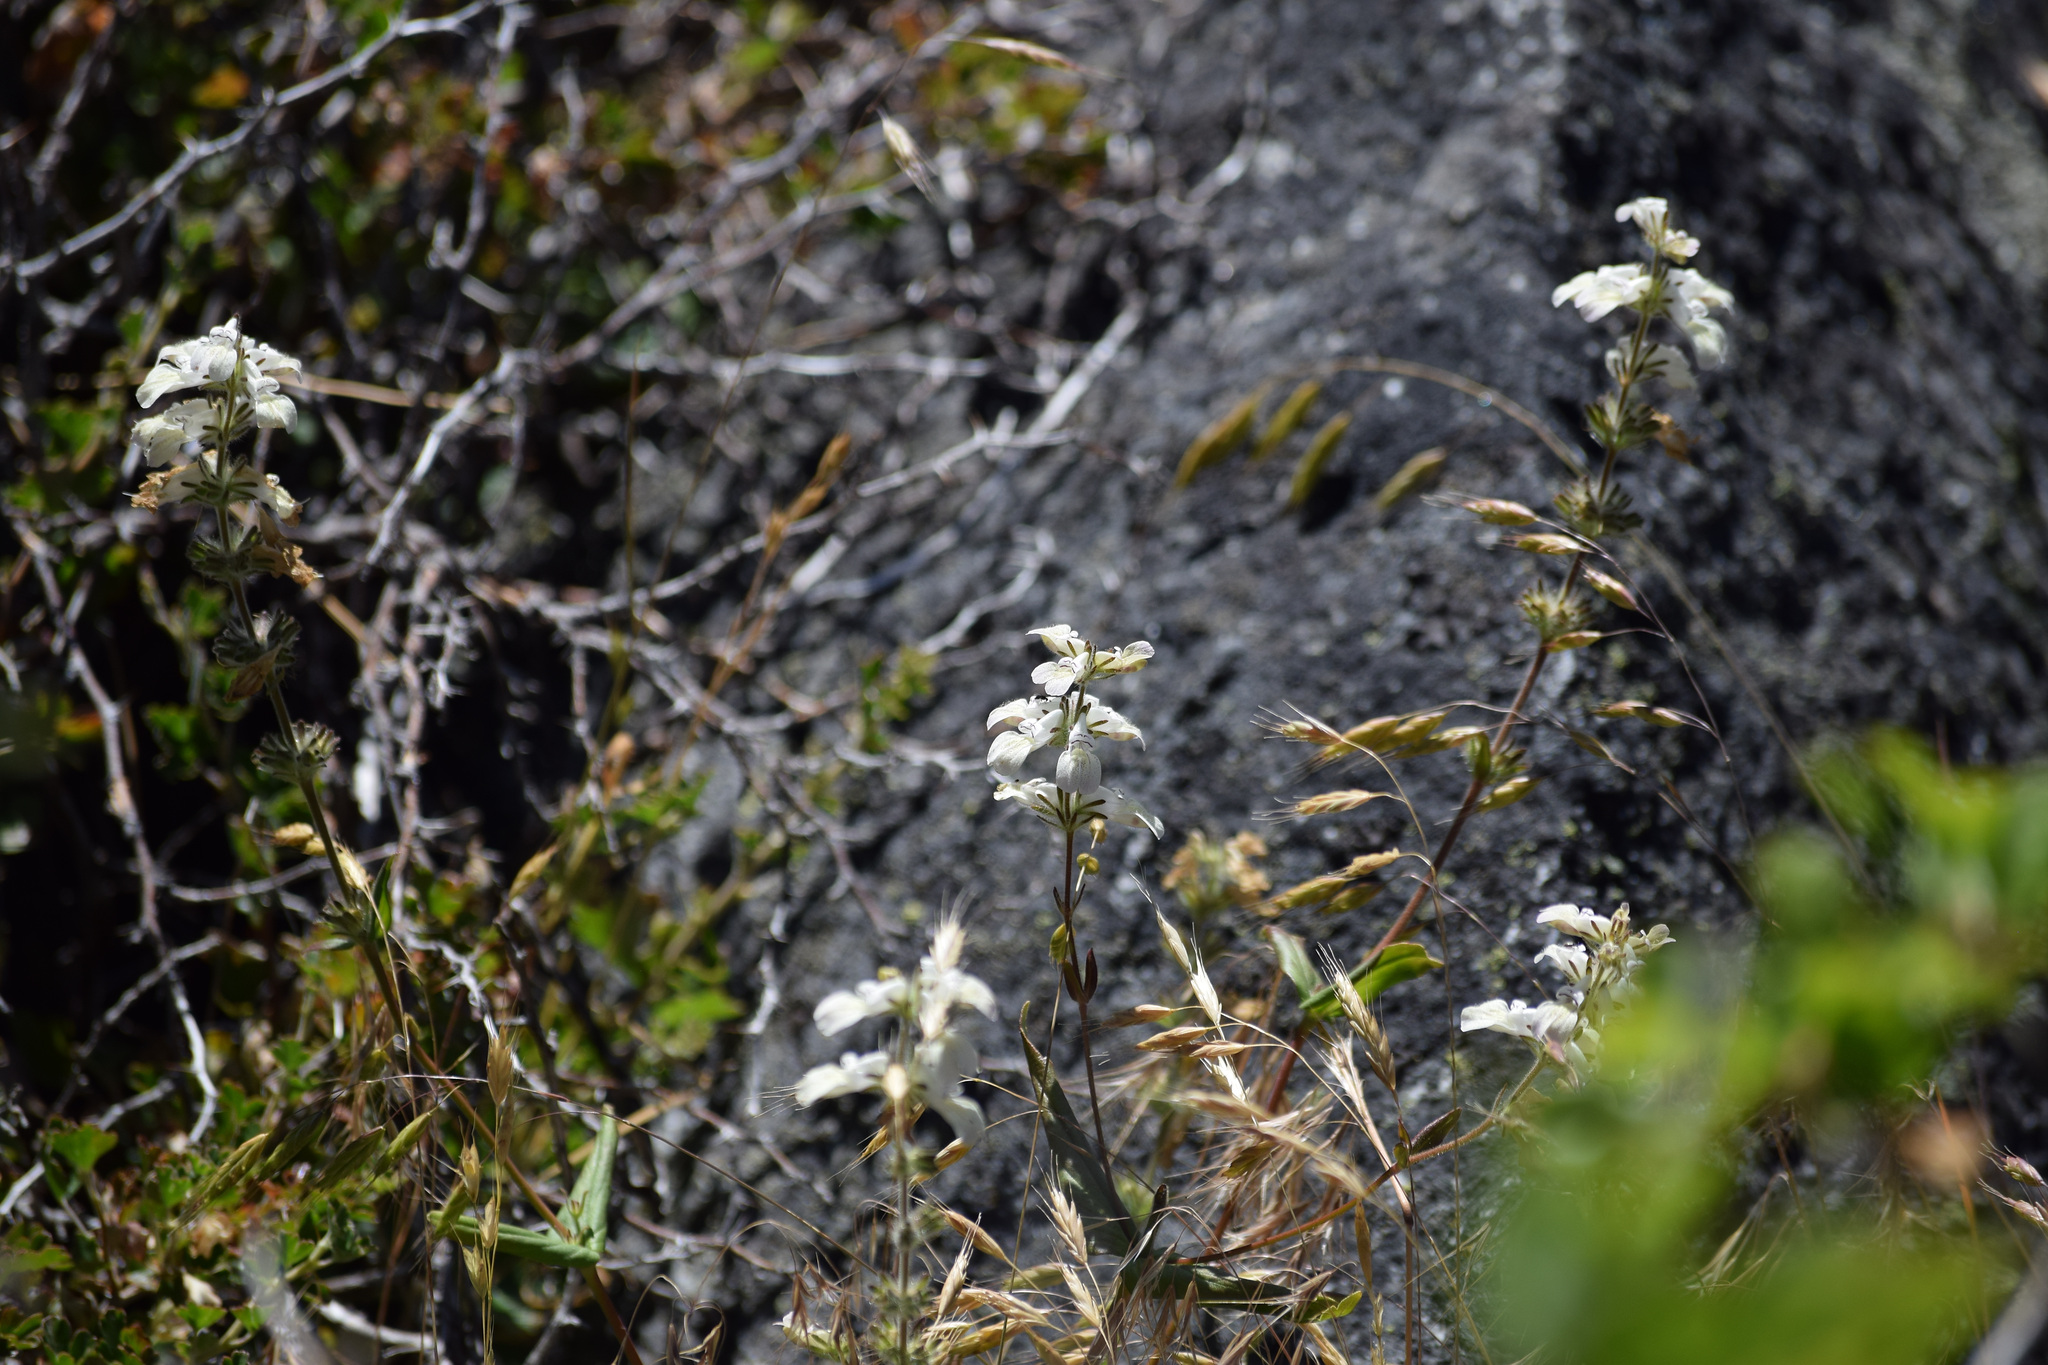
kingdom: Plantae
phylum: Tracheophyta
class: Magnoliopsida
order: Lamiales
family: Plantaginaceae
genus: Collinsia
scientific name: Collinsia tinctoria
